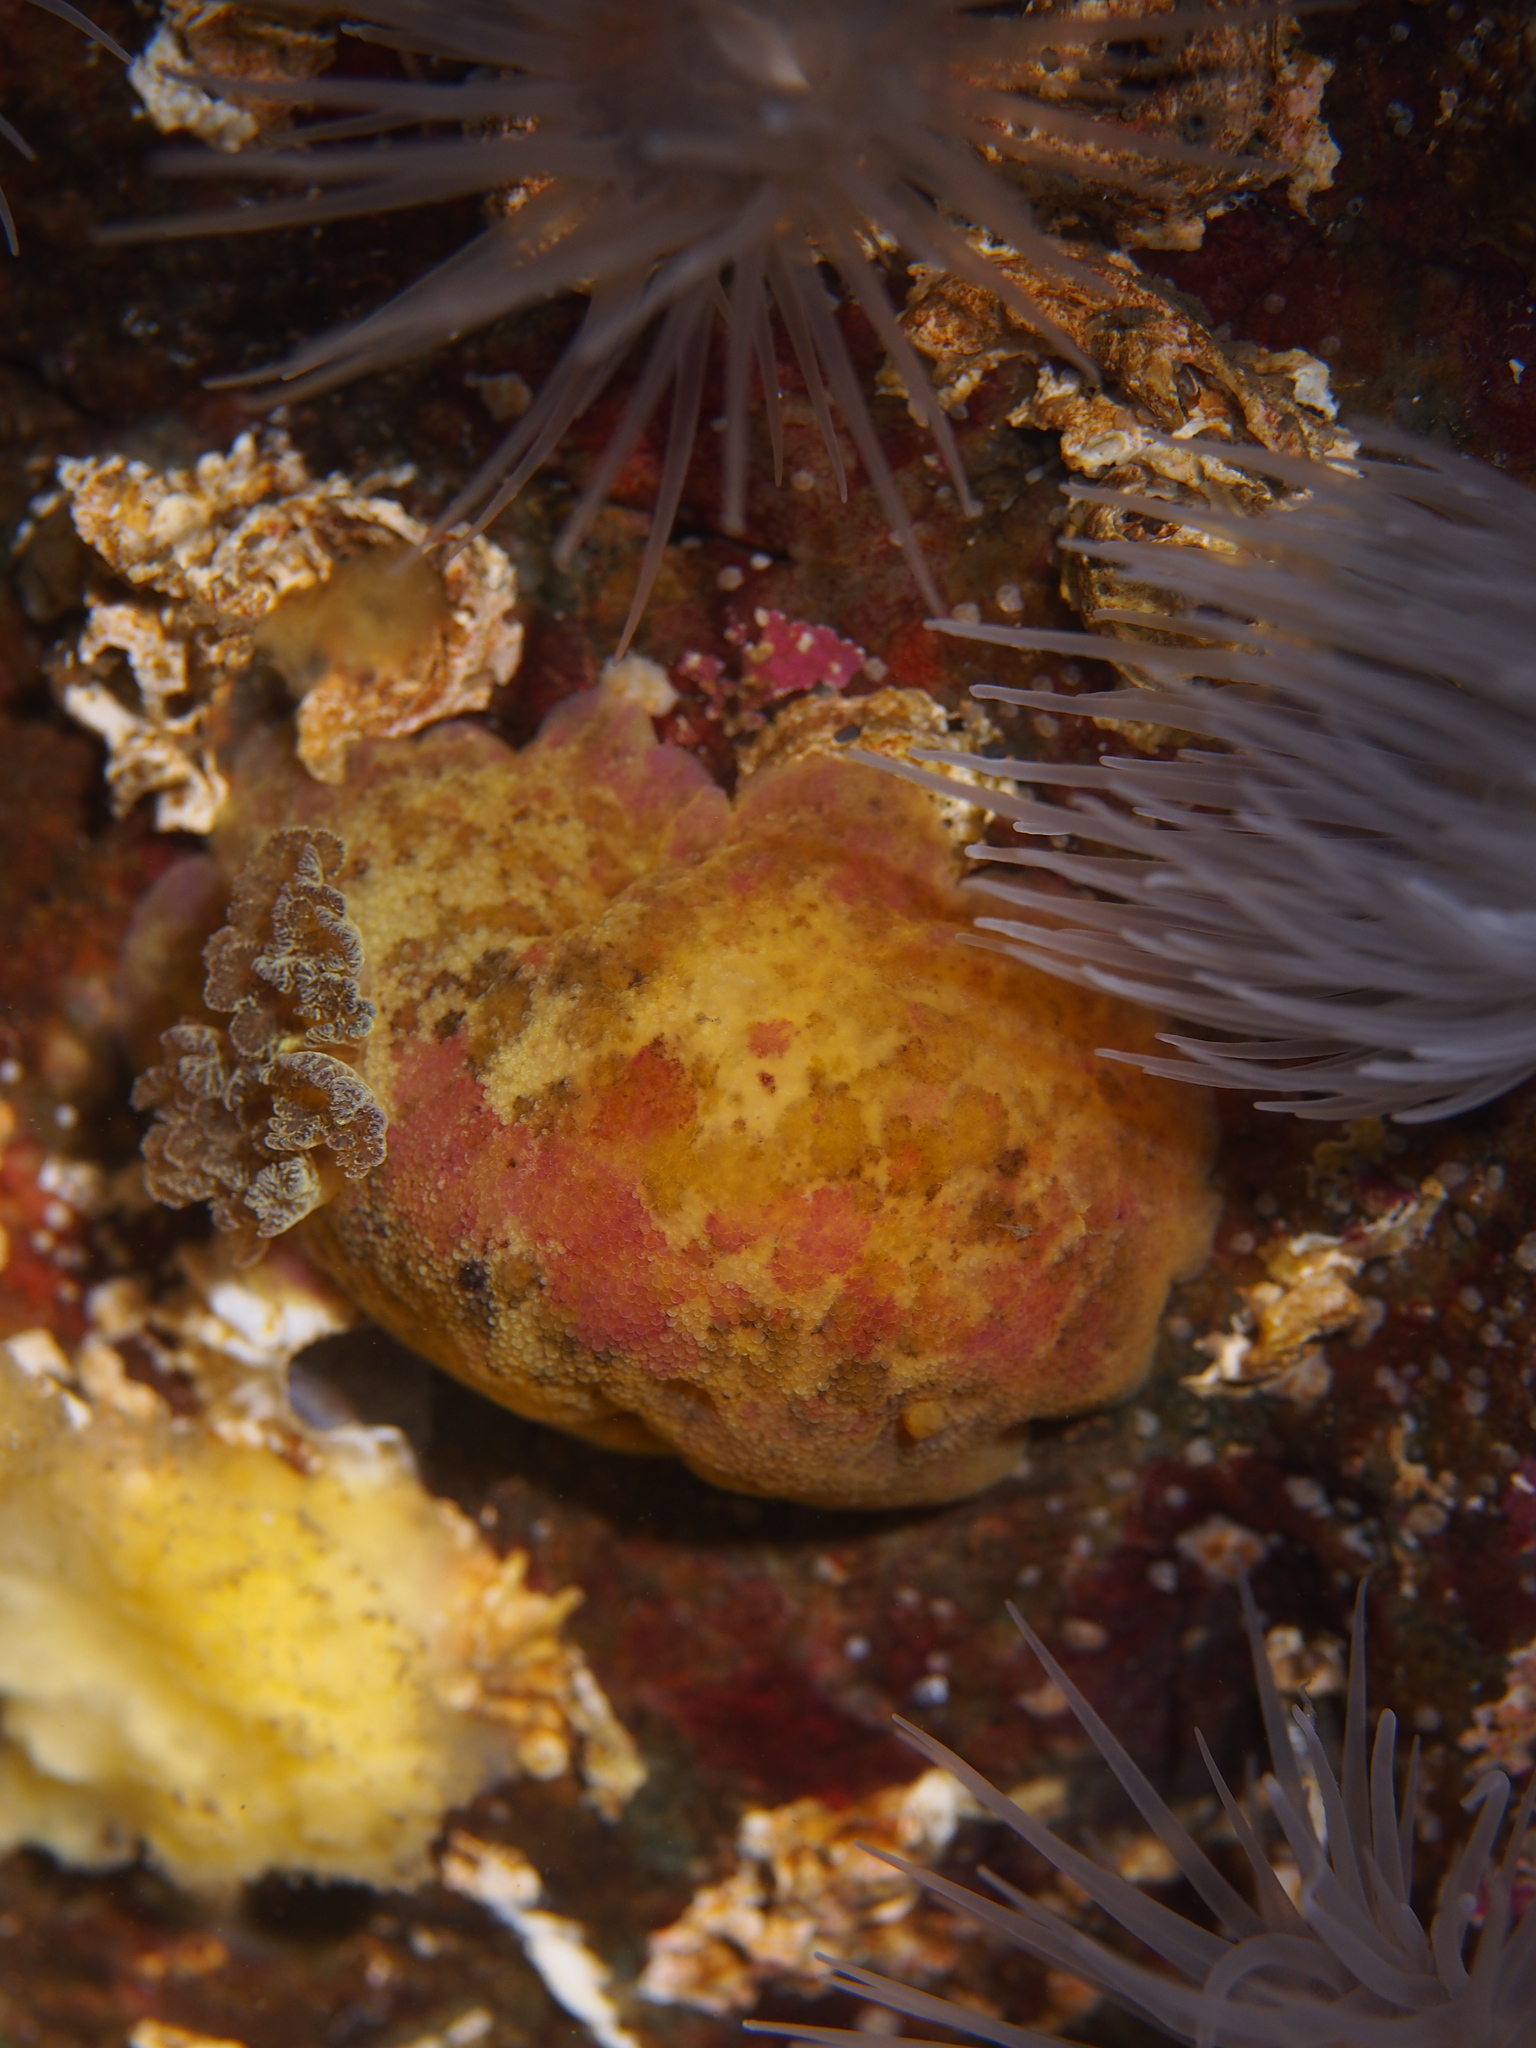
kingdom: Animalia
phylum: Mollusca
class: Gastropoda
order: Nudibranchia
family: Dorididae
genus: Doris
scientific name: Doris pseudoargus
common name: Sea lemon
